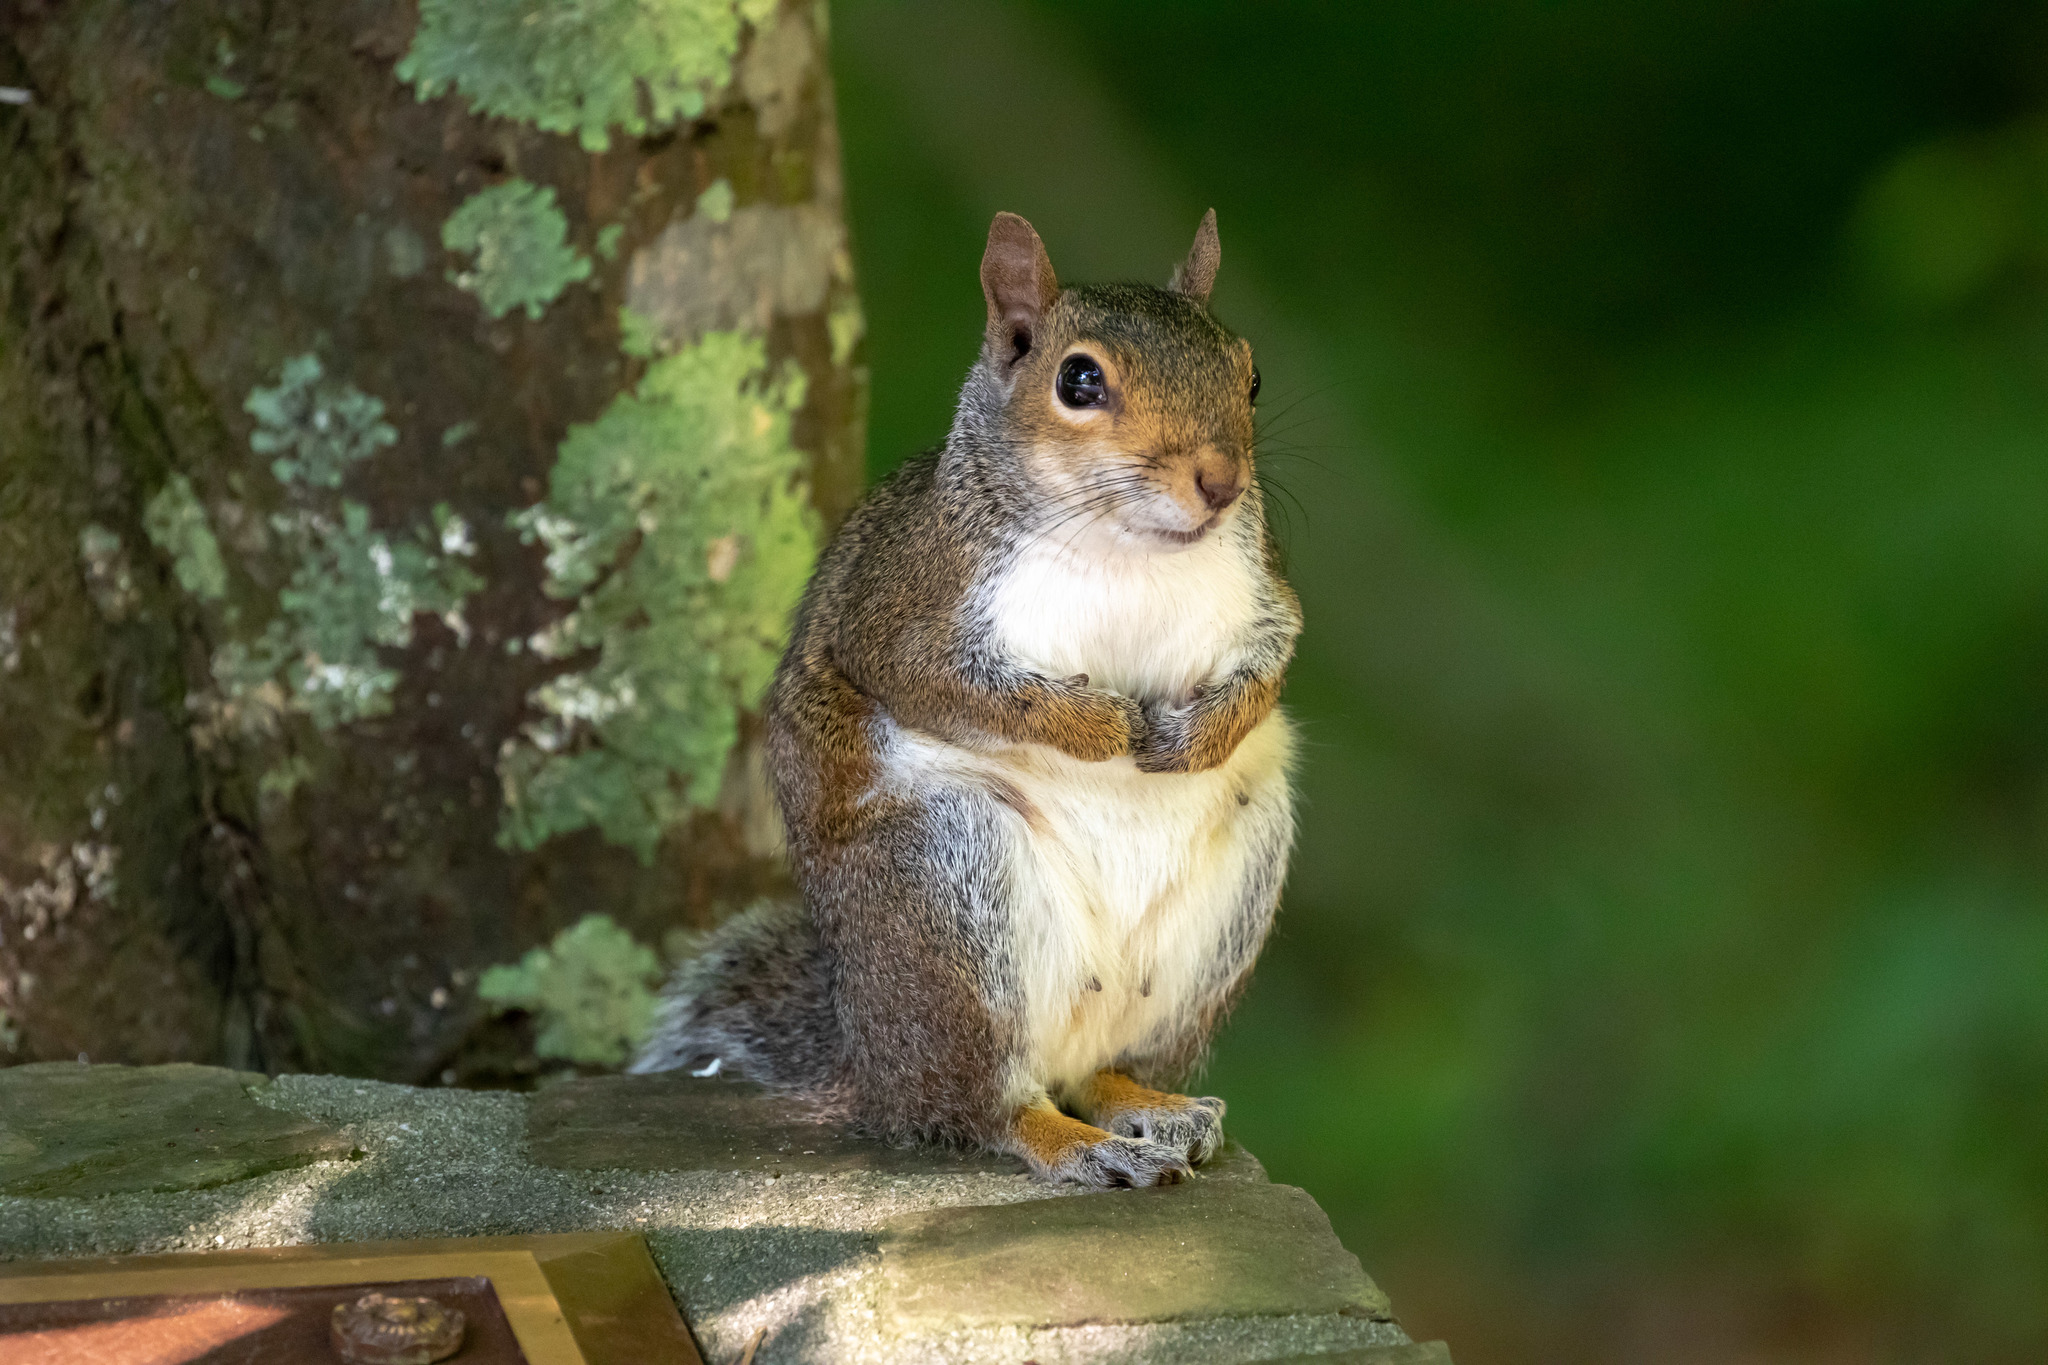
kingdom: Animalia
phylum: Chordata
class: Mammalia
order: Rodentia
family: Sciuridae
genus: Sciurus
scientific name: Sciurus carolinensis
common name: Eastern gray squirrel
